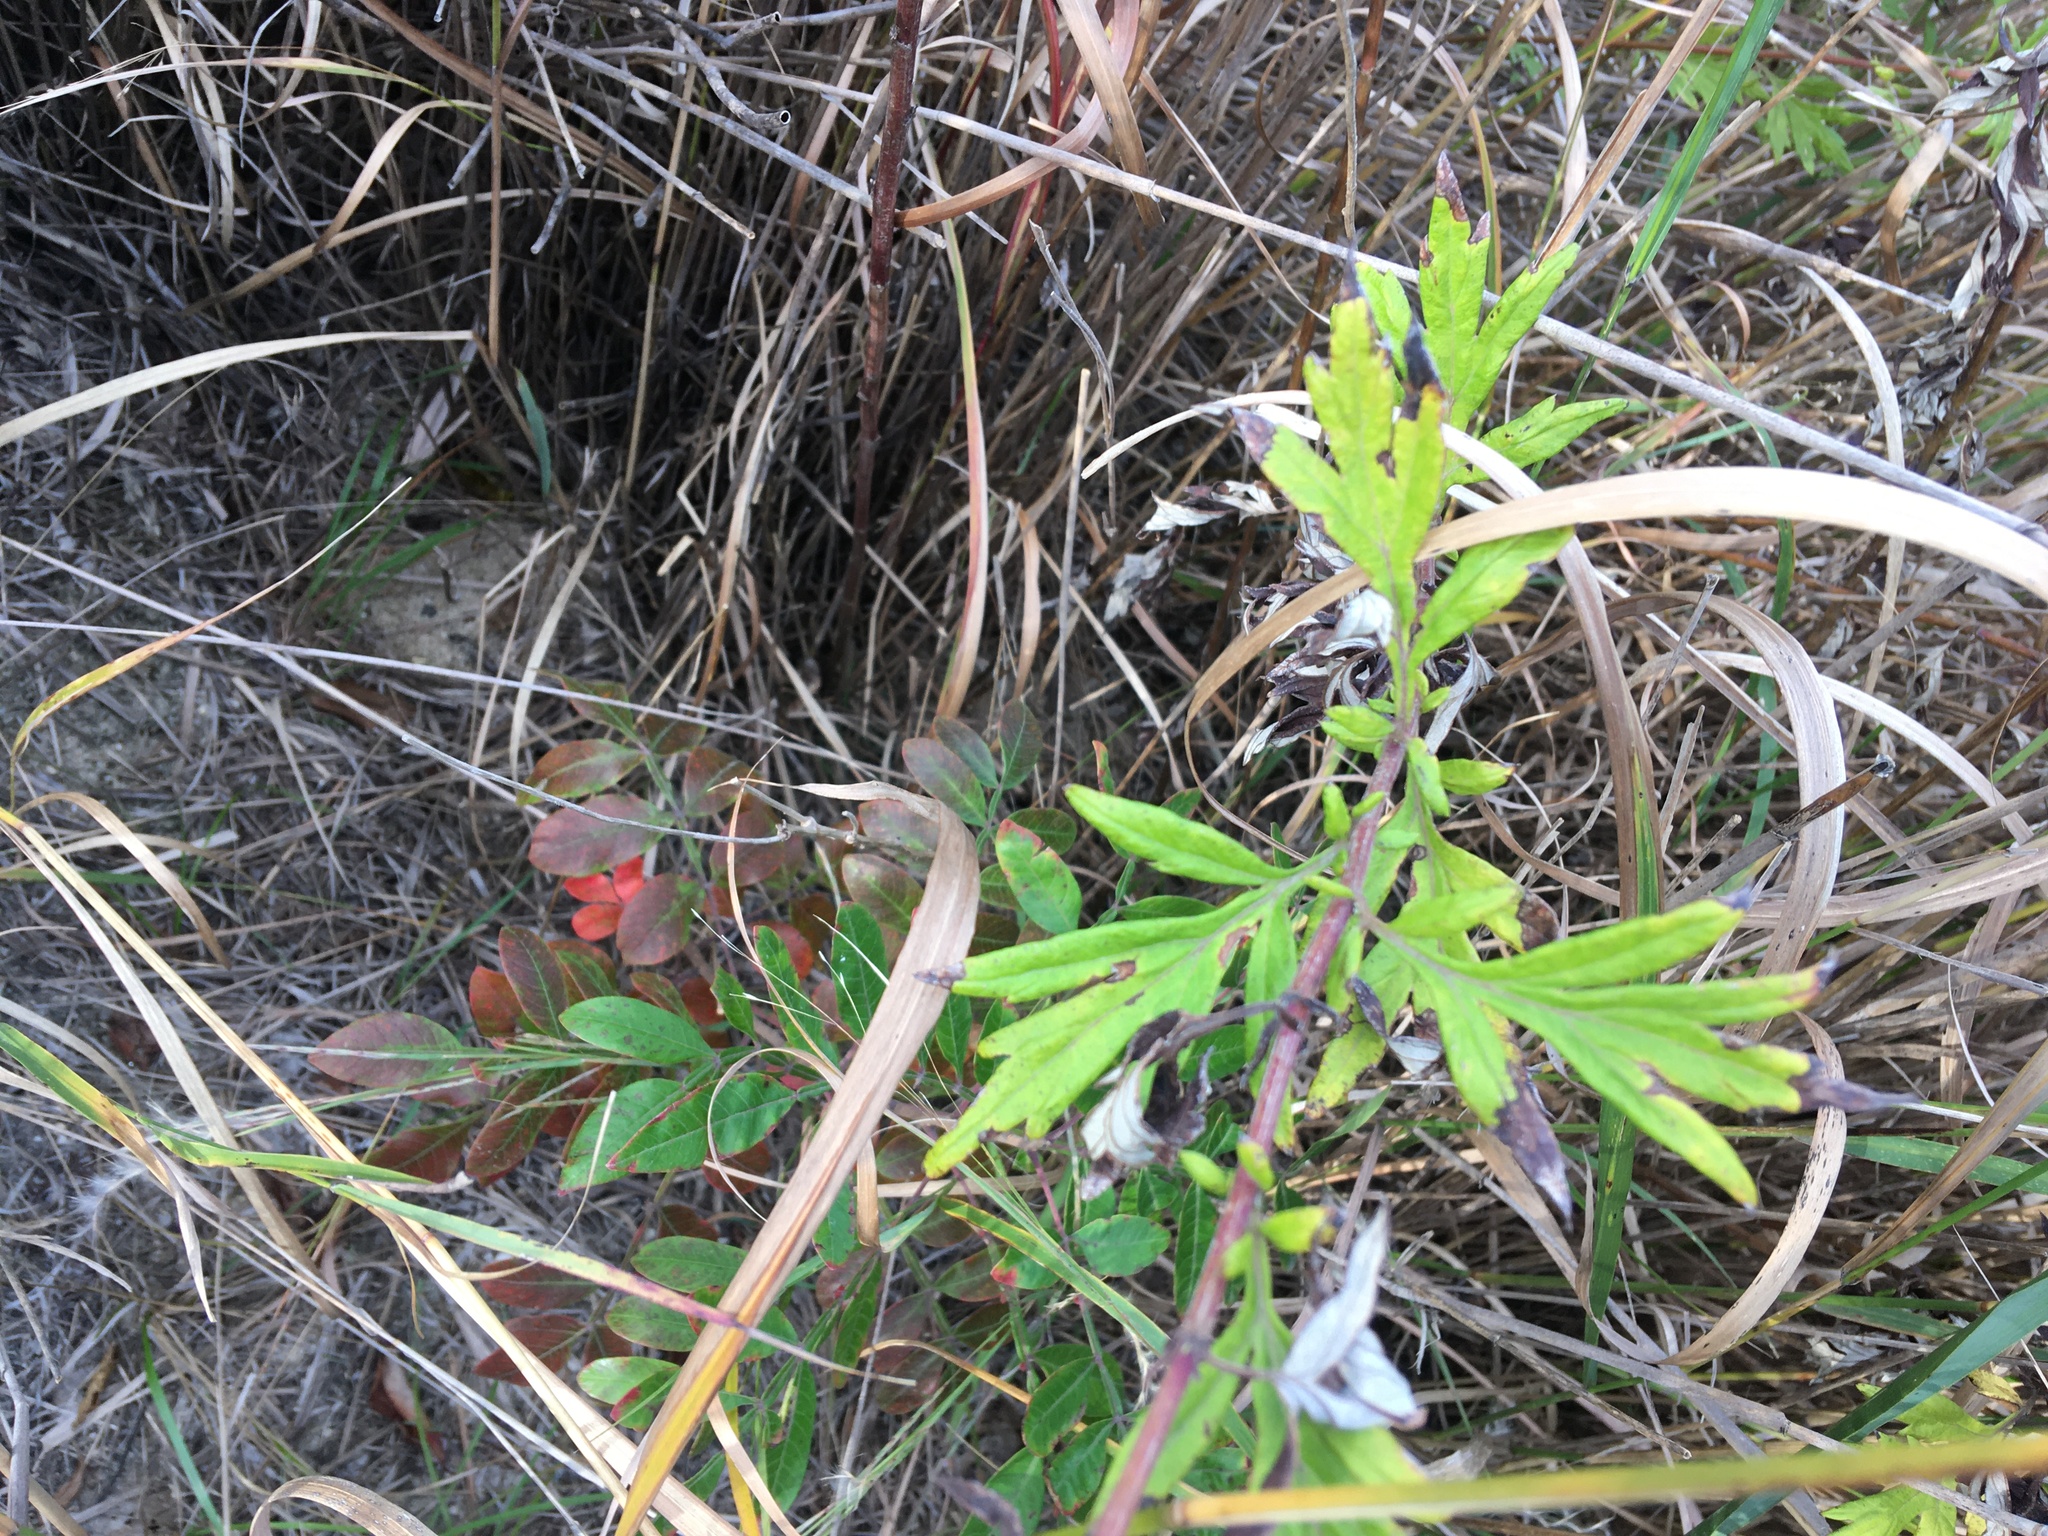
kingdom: Plantae
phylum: Tracheophyta
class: Magnoliopsida
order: Asterales
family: Asteraceae
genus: Artemisia
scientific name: Artemisia vulgaris
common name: Mugwort
